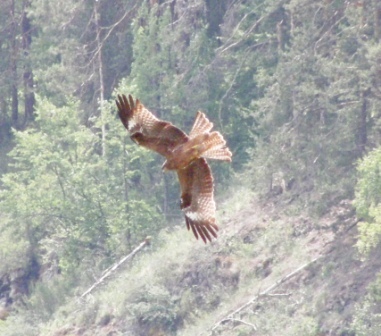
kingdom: Animalia
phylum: Chordata
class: Aves
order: Accipitriformes
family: Accipitridae
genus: Milvus
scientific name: Milvus migrans
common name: Black kite
